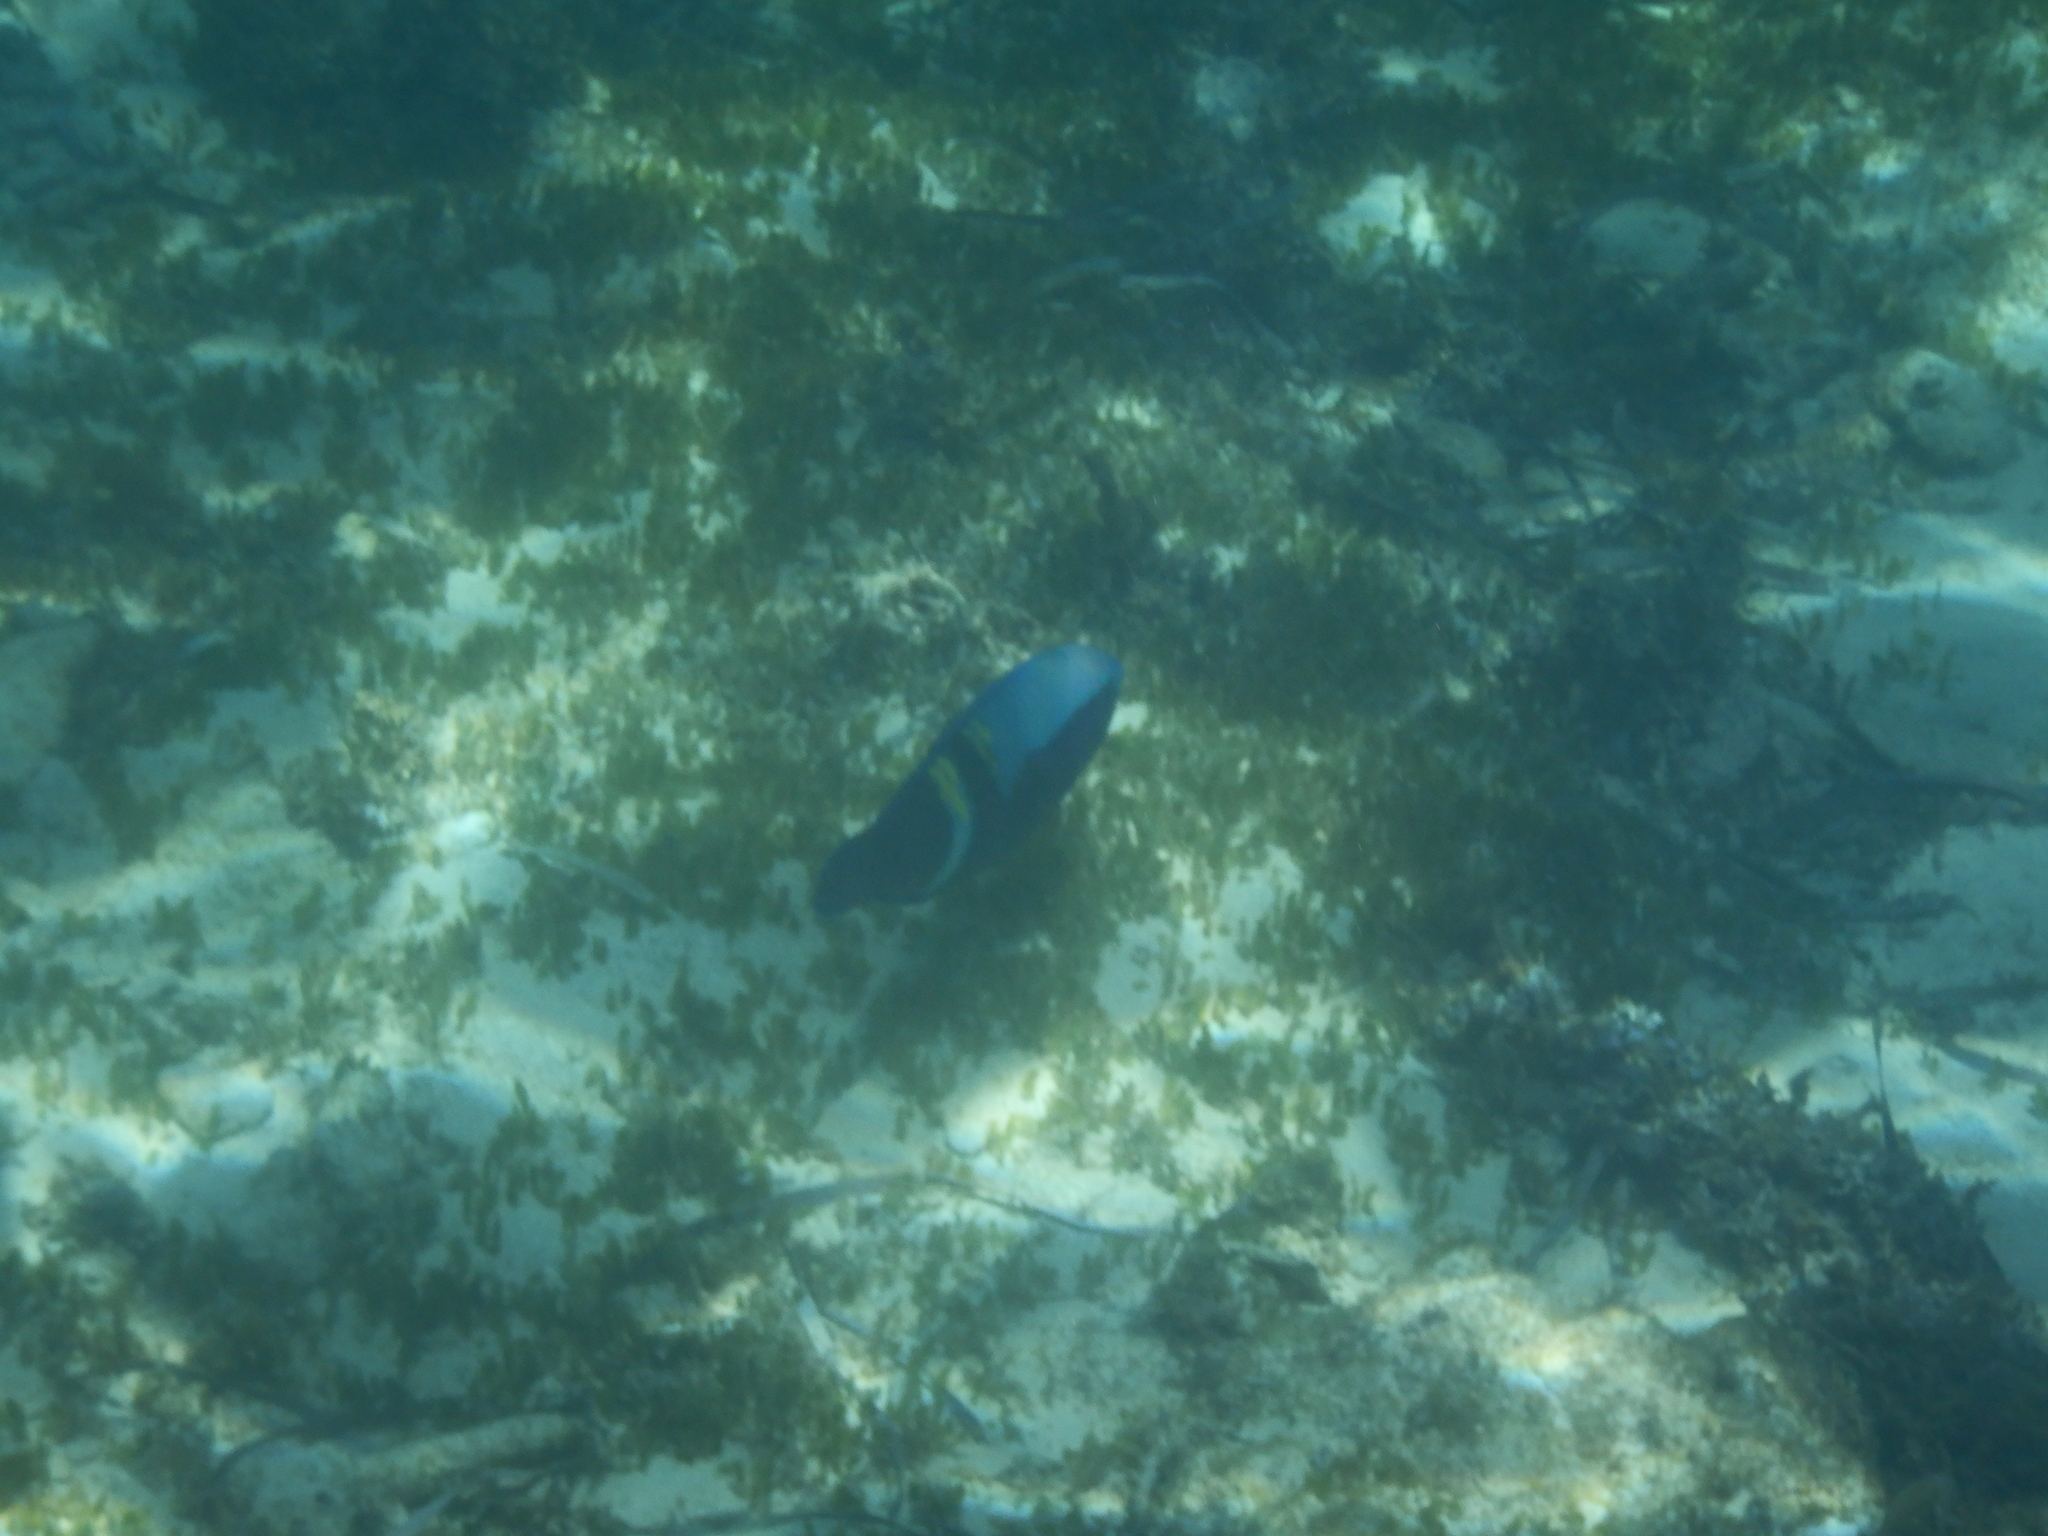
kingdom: Animalia
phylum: Chordata
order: Perciformes
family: Scaridae
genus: Scarus
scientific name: Scarus schlegeli
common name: Schlegel's parrotfish
